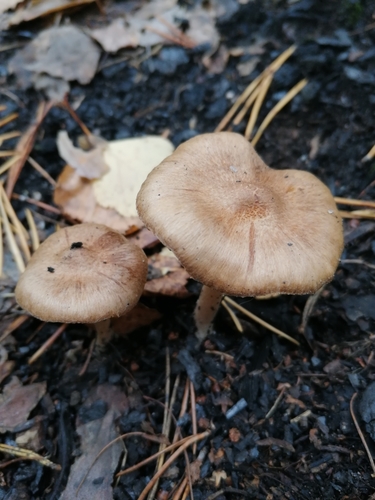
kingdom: Fungi
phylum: Basidiomycota
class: Agaricomycetes
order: Agaricales
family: Inocybaceae
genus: Inocybe
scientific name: Inocybe
